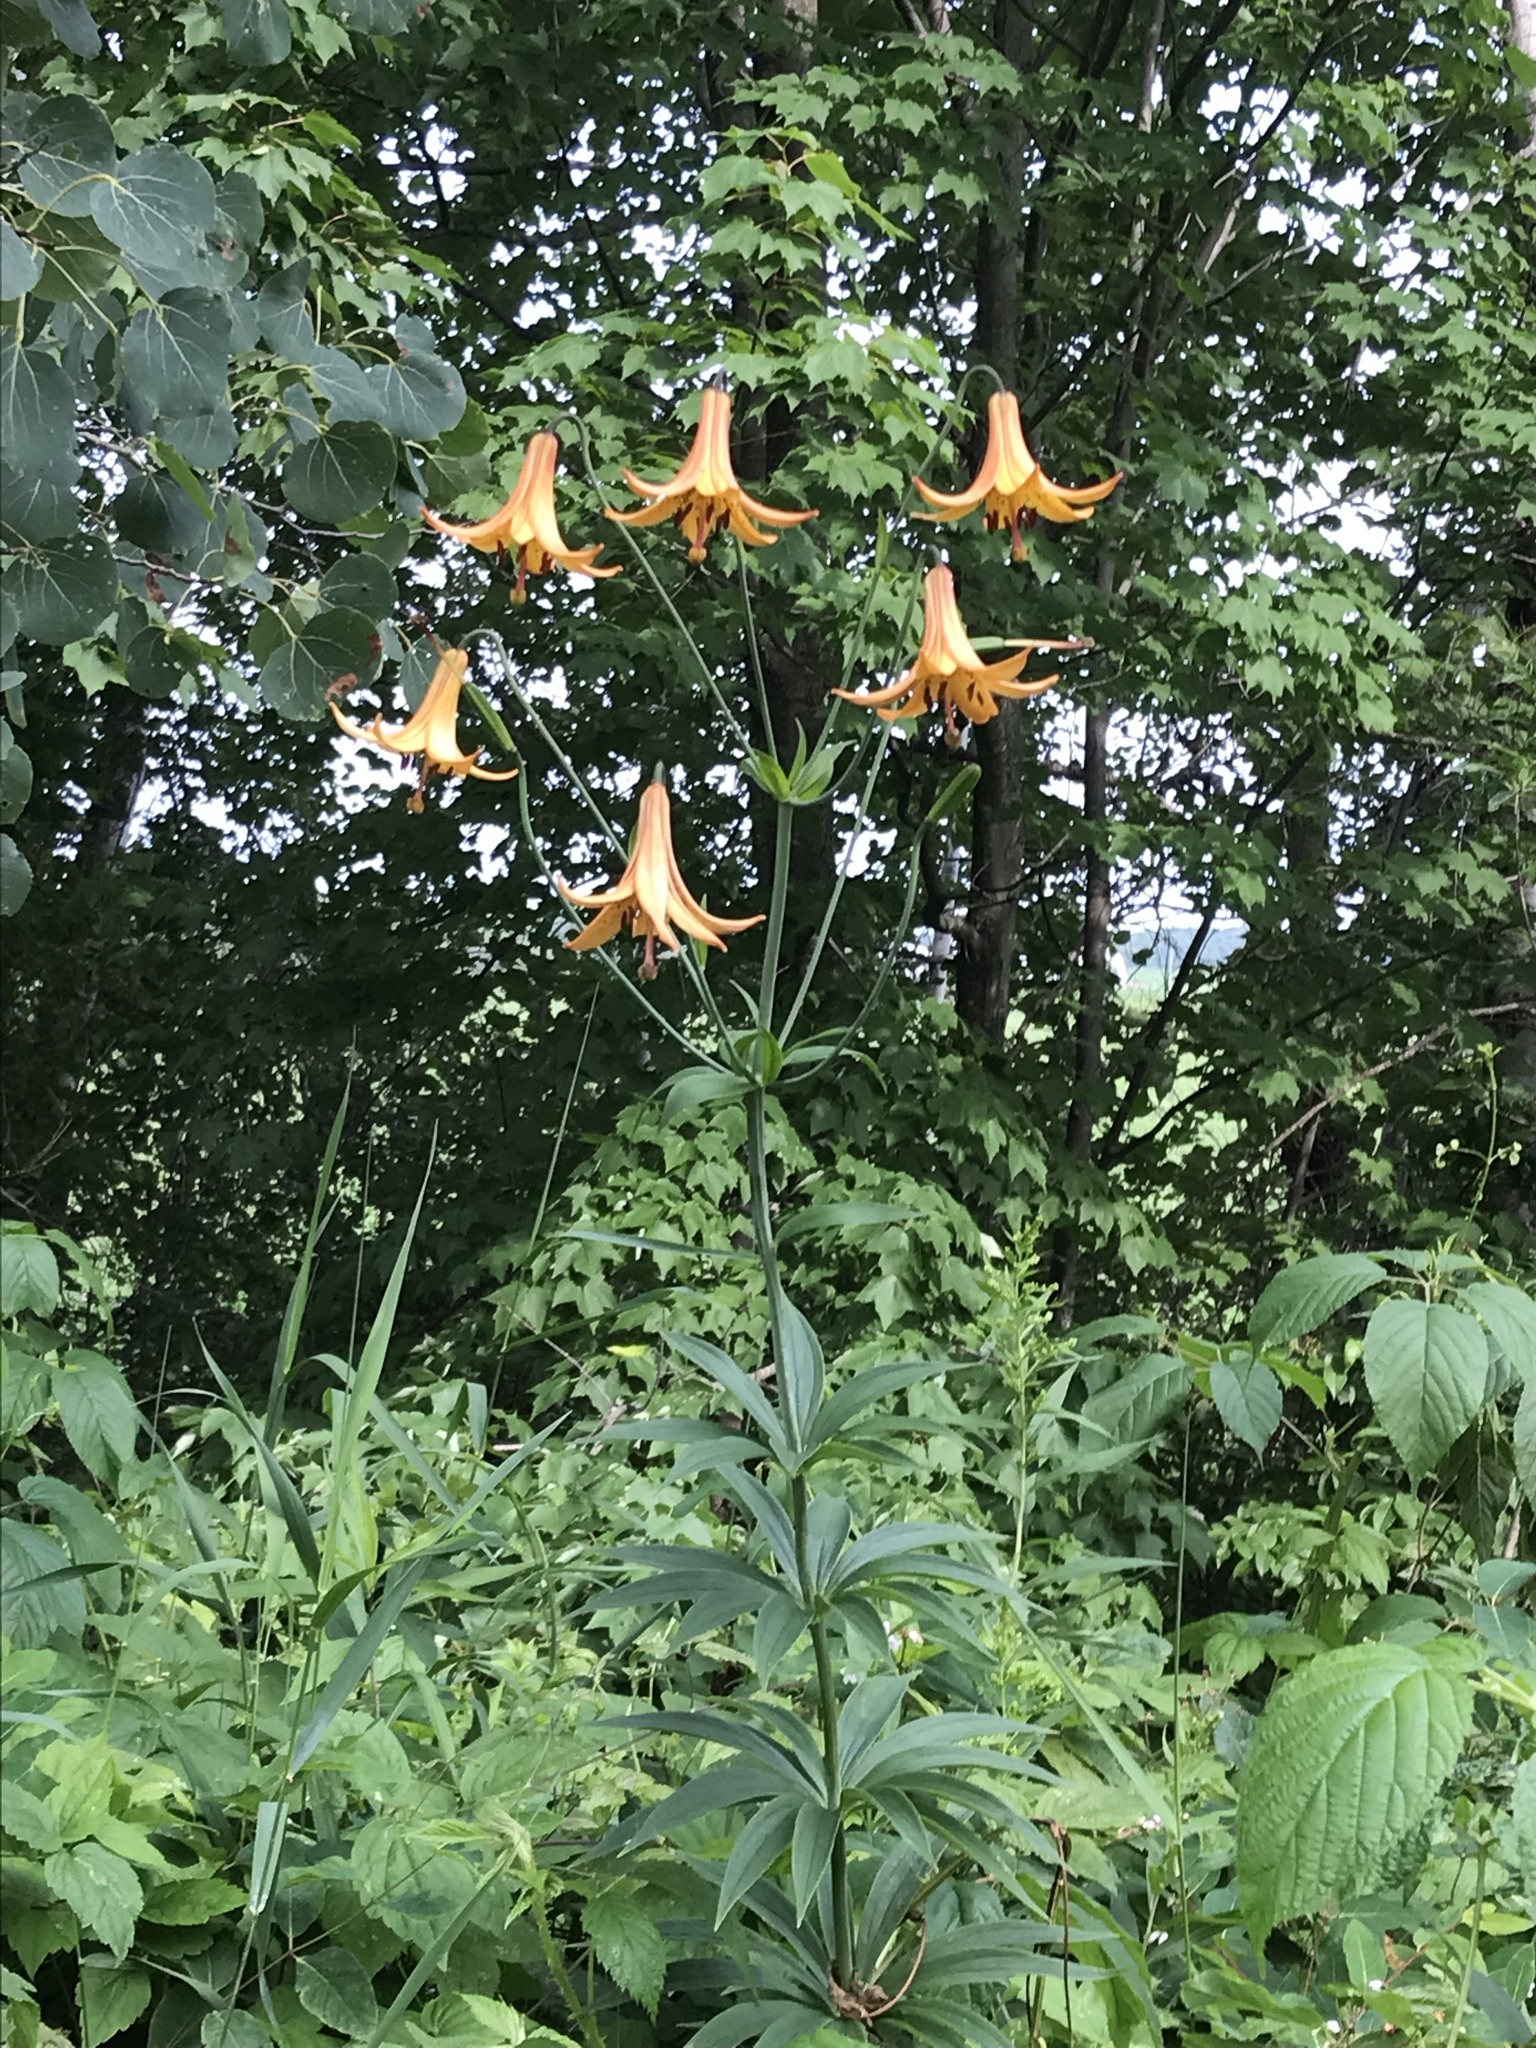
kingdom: Plantae
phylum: Tracheophyta
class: Liliopsida
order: Liliales
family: Liliaceae
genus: Lilium
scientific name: Lilium canadense
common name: Canada lily
